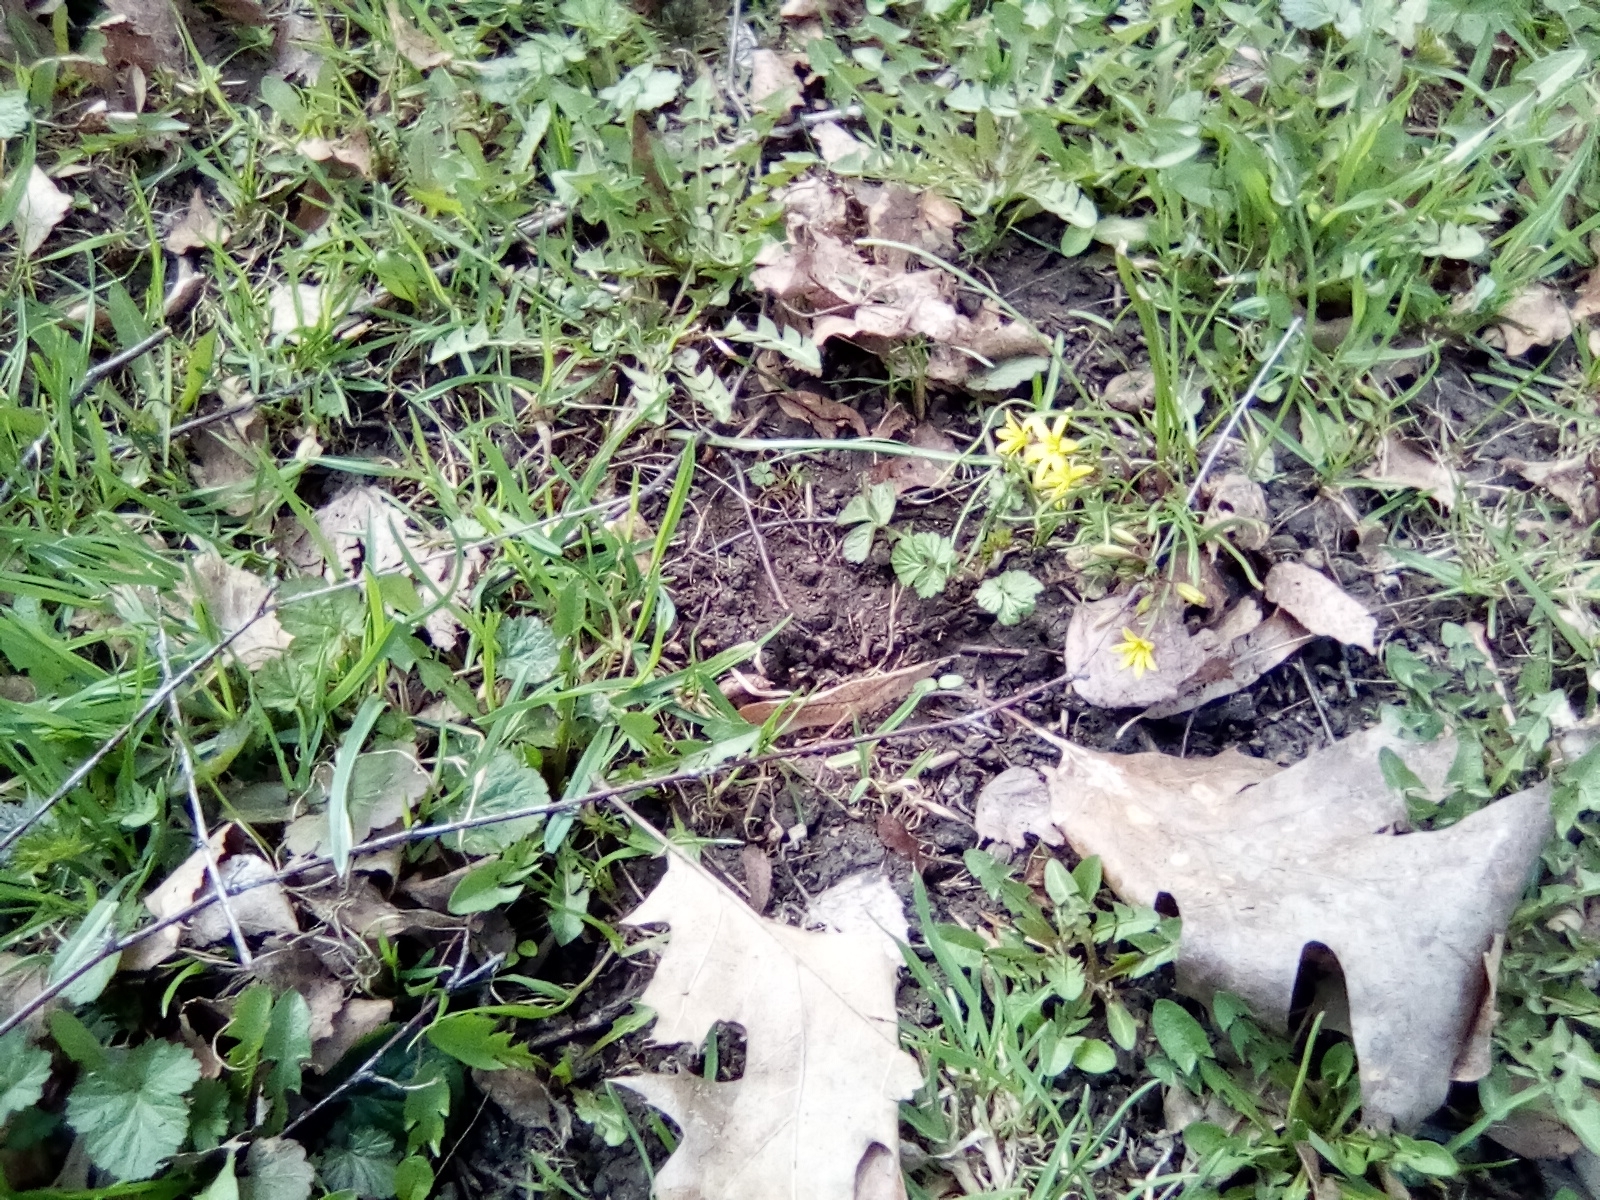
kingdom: Plantae
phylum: Tracheophyta
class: Liliopsida
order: Liliales
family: Liliaceae
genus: Gagea
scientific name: Gagea fragifera
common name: Lily
